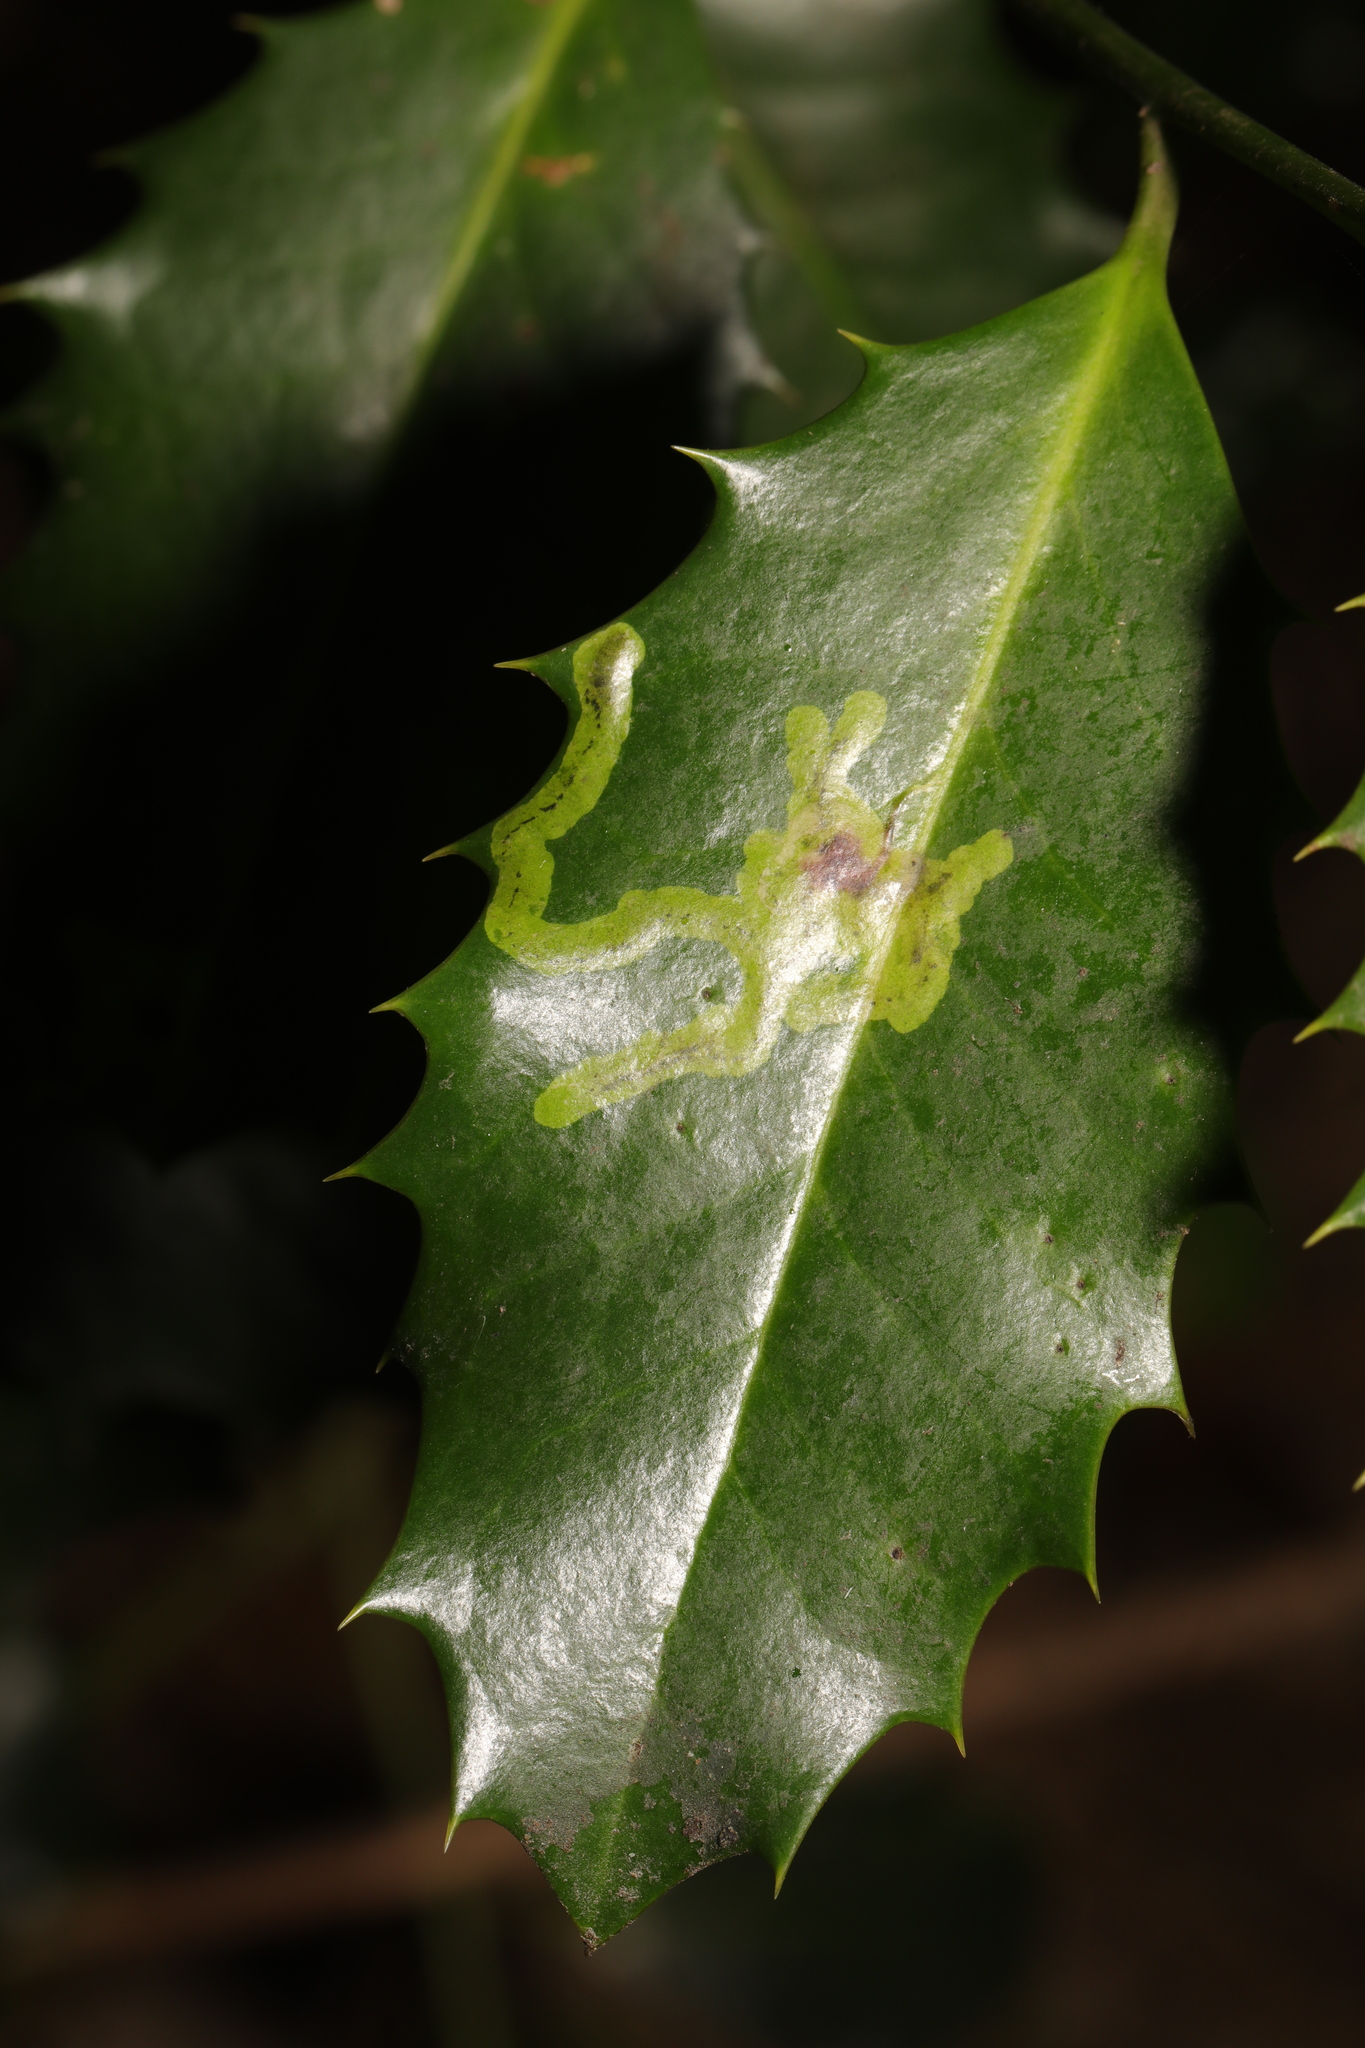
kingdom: Animalia
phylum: Arthropoda
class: Insecta
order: Diptera
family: Agromyzidae
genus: Phytomyza
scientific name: Phytomyza ilicis
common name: Holly leafminer
